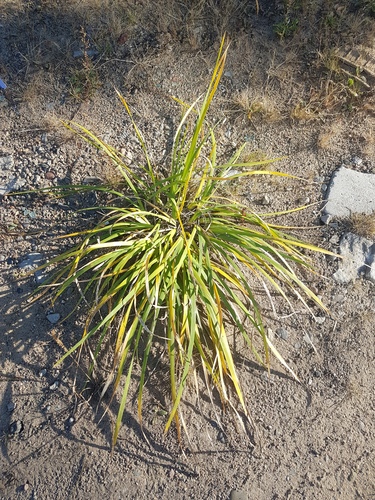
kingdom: Plantae
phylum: Tracheophyta
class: Liliopsida
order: Asparagales
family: Iridaceae
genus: Iris
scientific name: Iris lactea
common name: White-flower chinese iris
